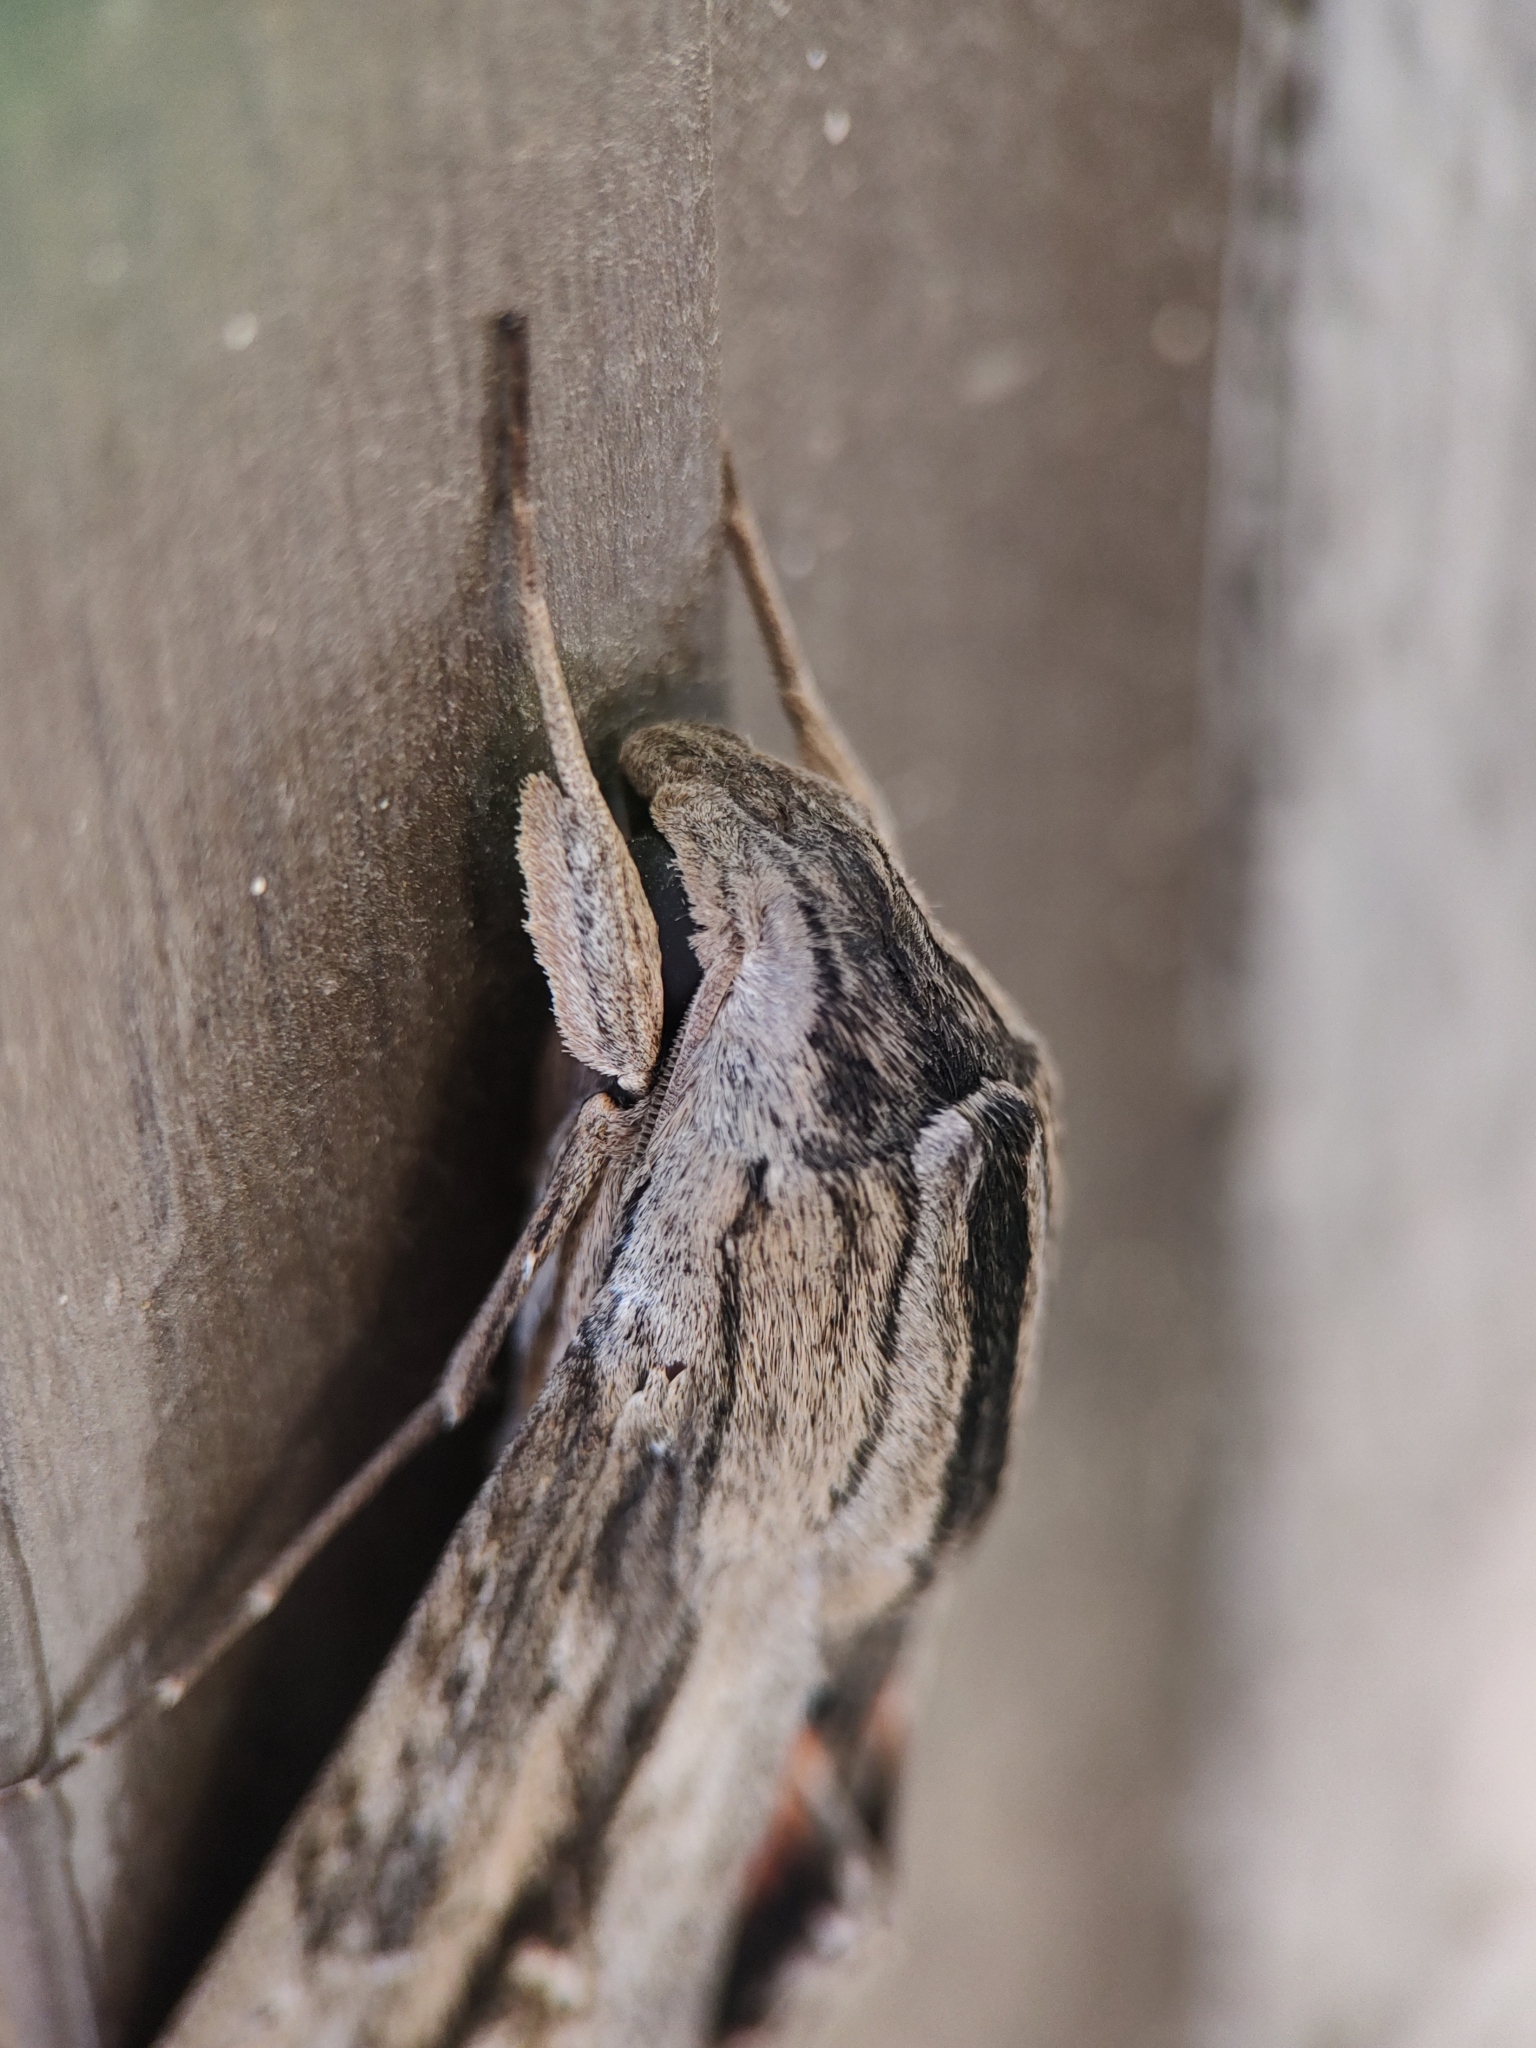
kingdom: Animalia
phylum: Arthropoda
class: Insecta
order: Lepidoptera
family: Sphingidae
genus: Erinnyis
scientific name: Erinnyis ello
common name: Ello sphinx
